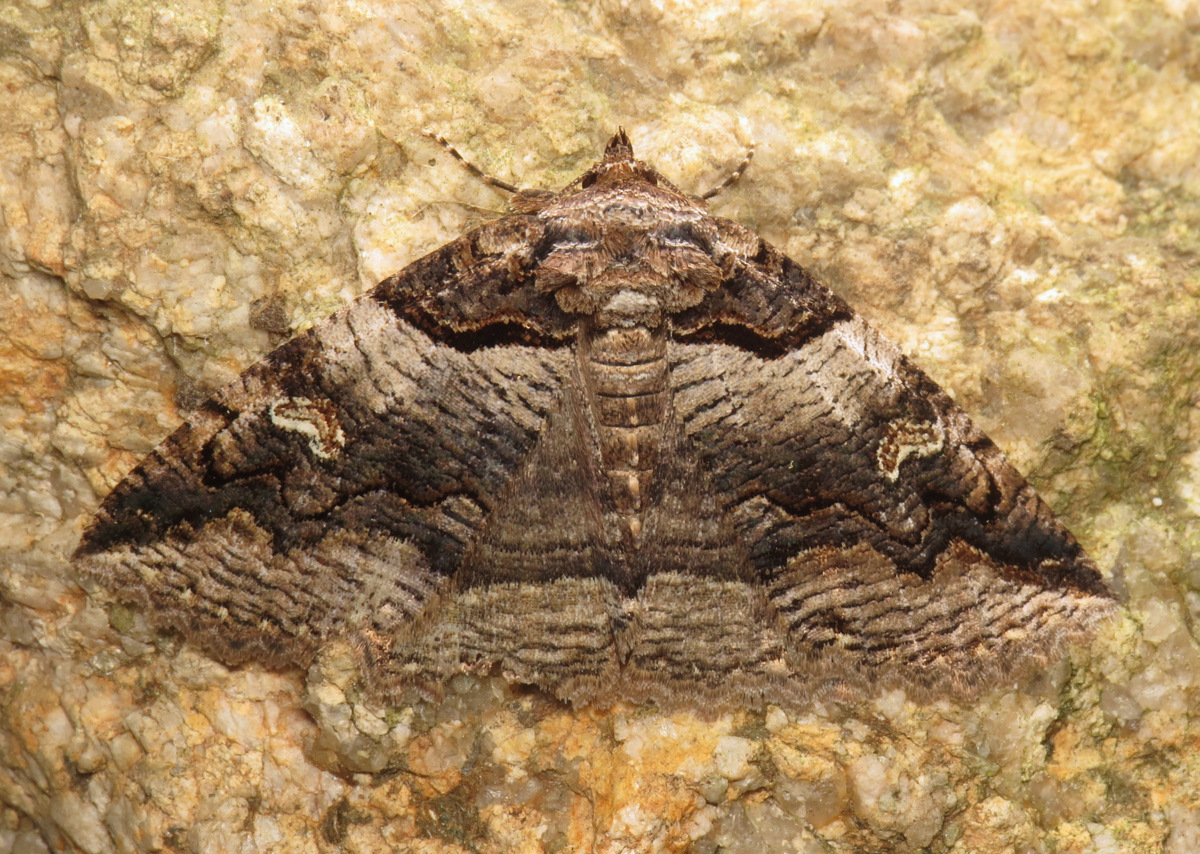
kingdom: Animalia
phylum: Arthropoda
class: Insecta
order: Lepidoptera
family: Erebidae
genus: Zale
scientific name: Zale intenta
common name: Intent zale moth
